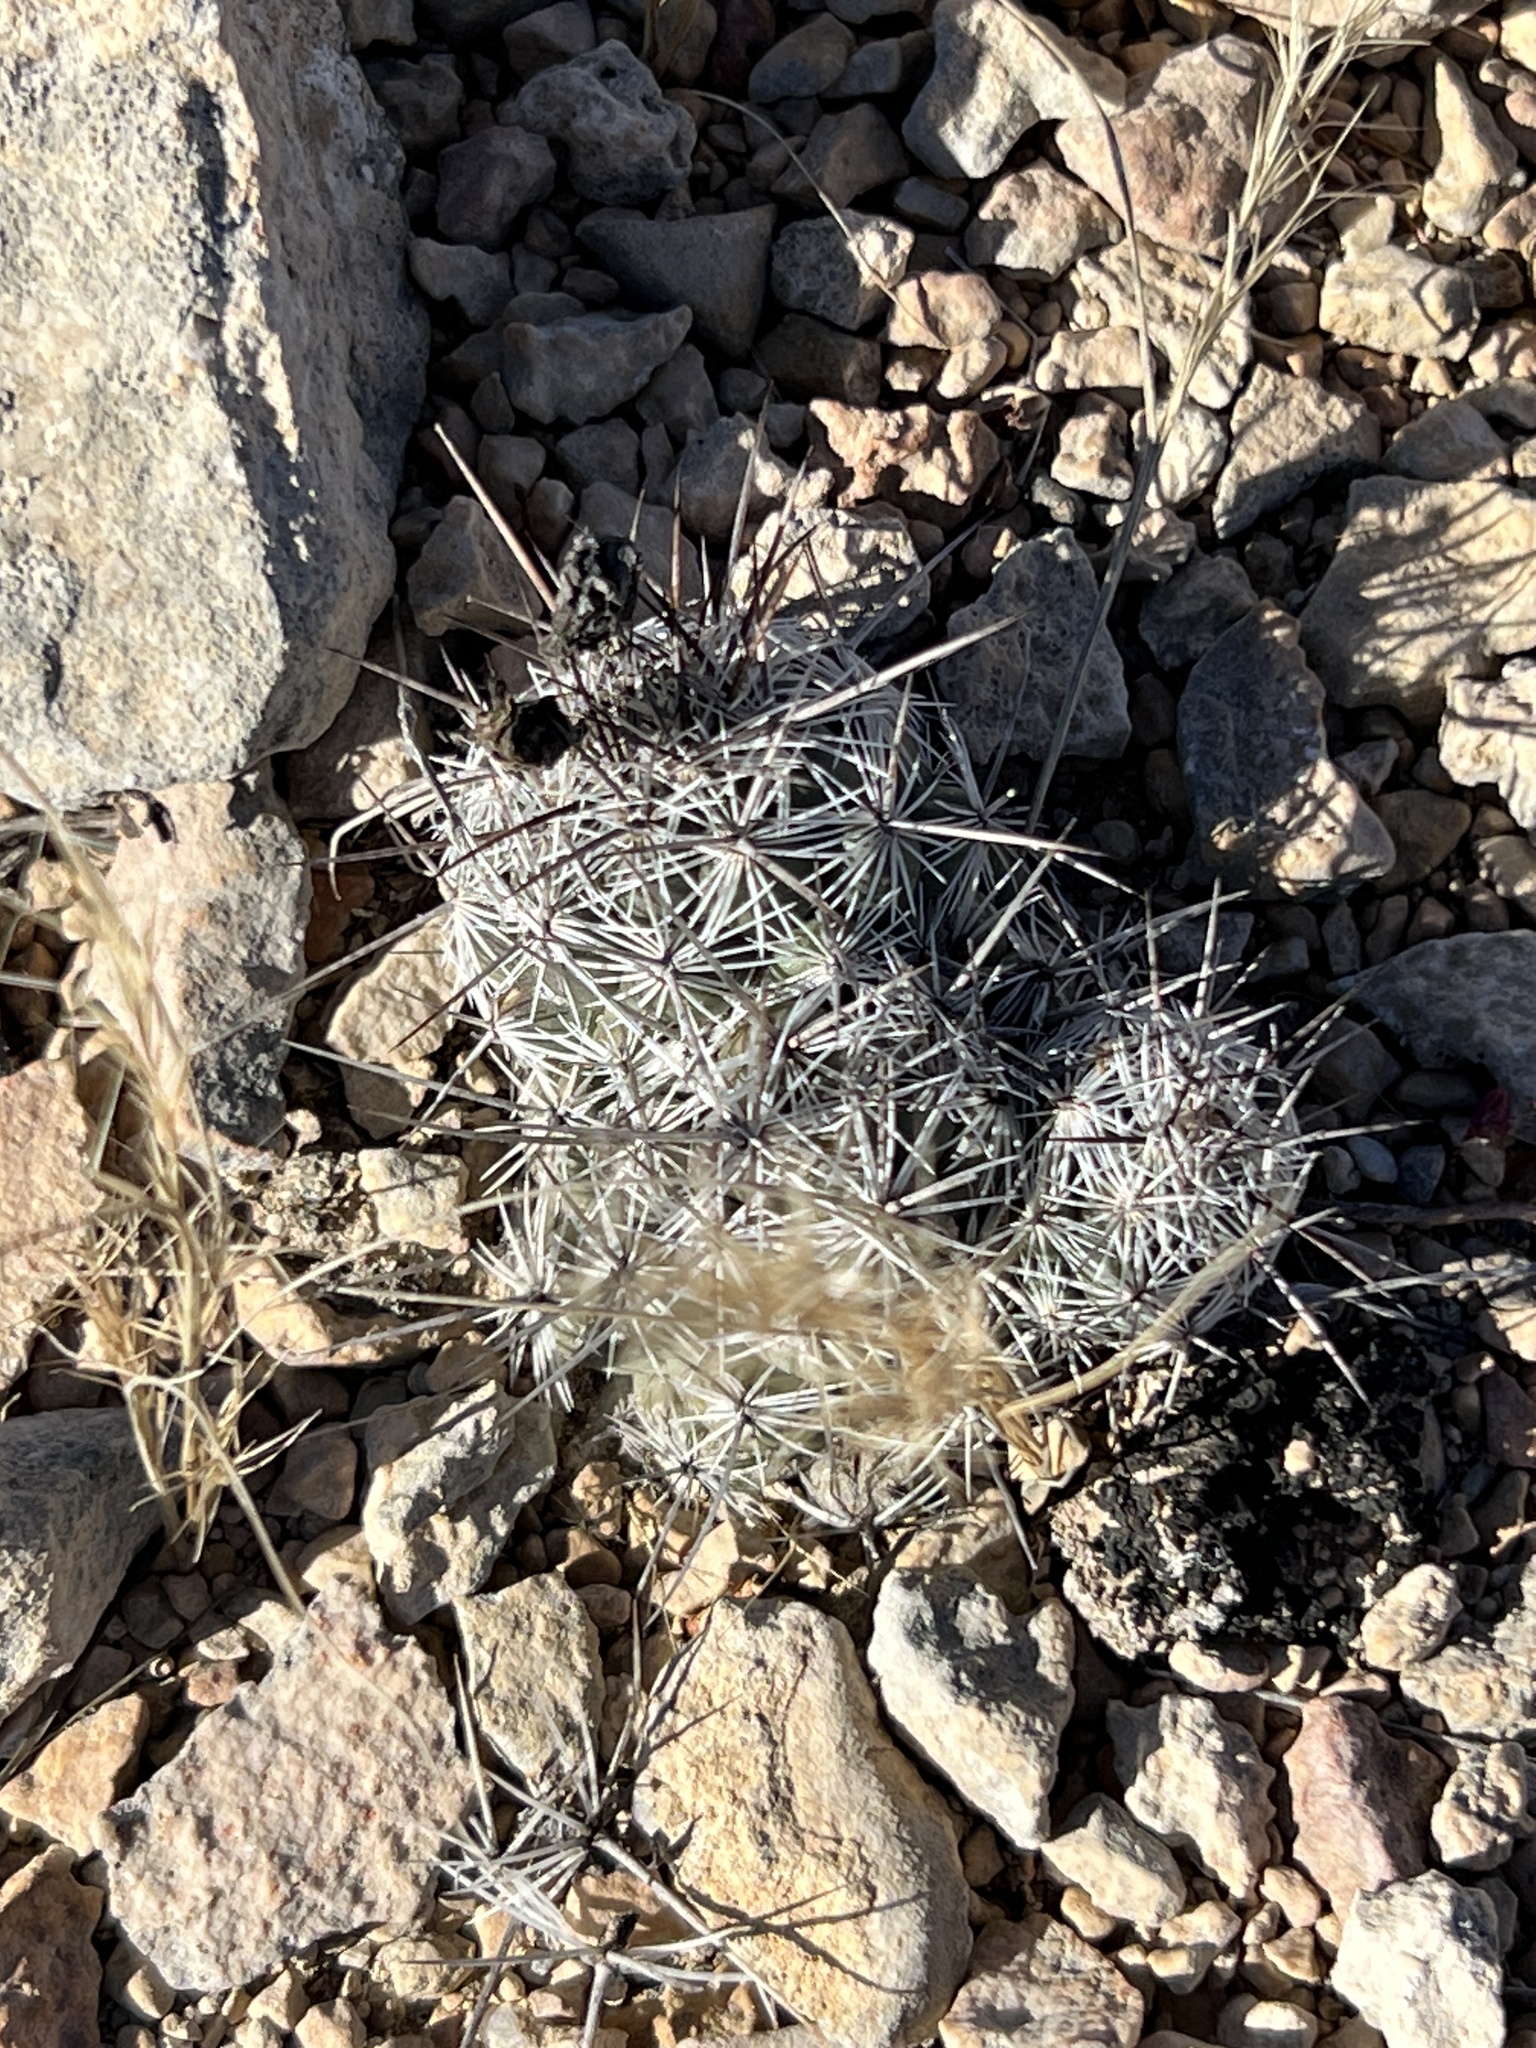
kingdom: Plantae
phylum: Tracheophyta
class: Magnoliopsida
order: Caryophyllales
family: Cactaceae
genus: Cochemiea
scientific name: Cochemiea conoidea
